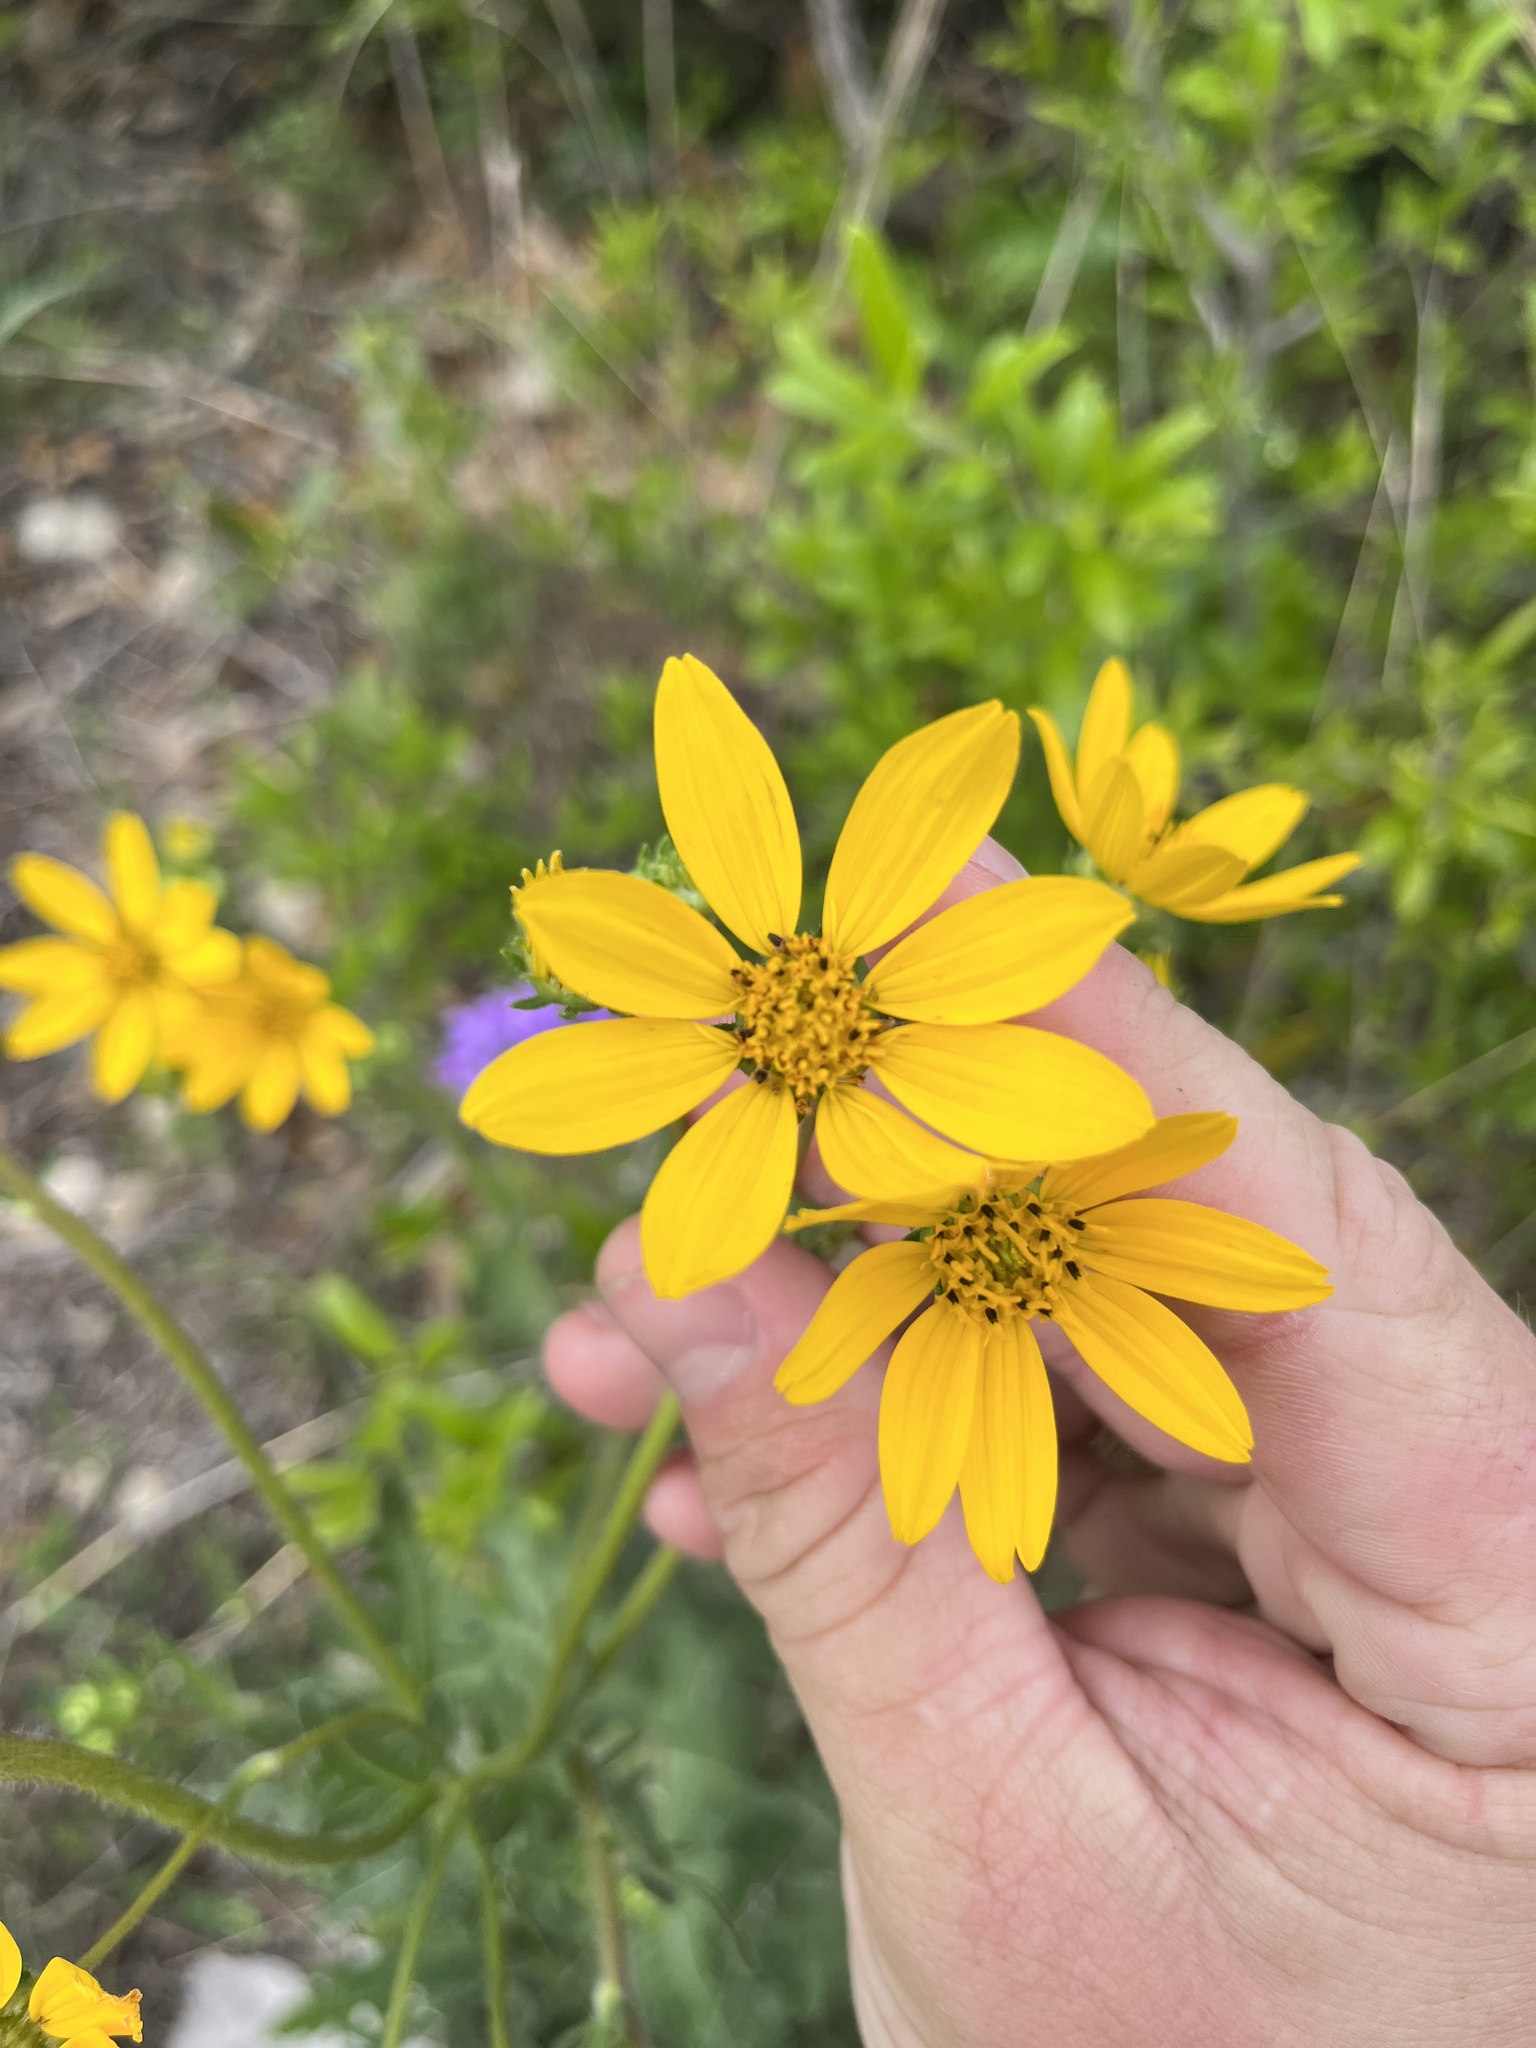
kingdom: Plantae
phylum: Tracheophyta
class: Magnoliopsida
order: Asterales
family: Asteraceae
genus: Engelmannia
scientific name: Engelmannia peristenia
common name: Engelmann's daisy
